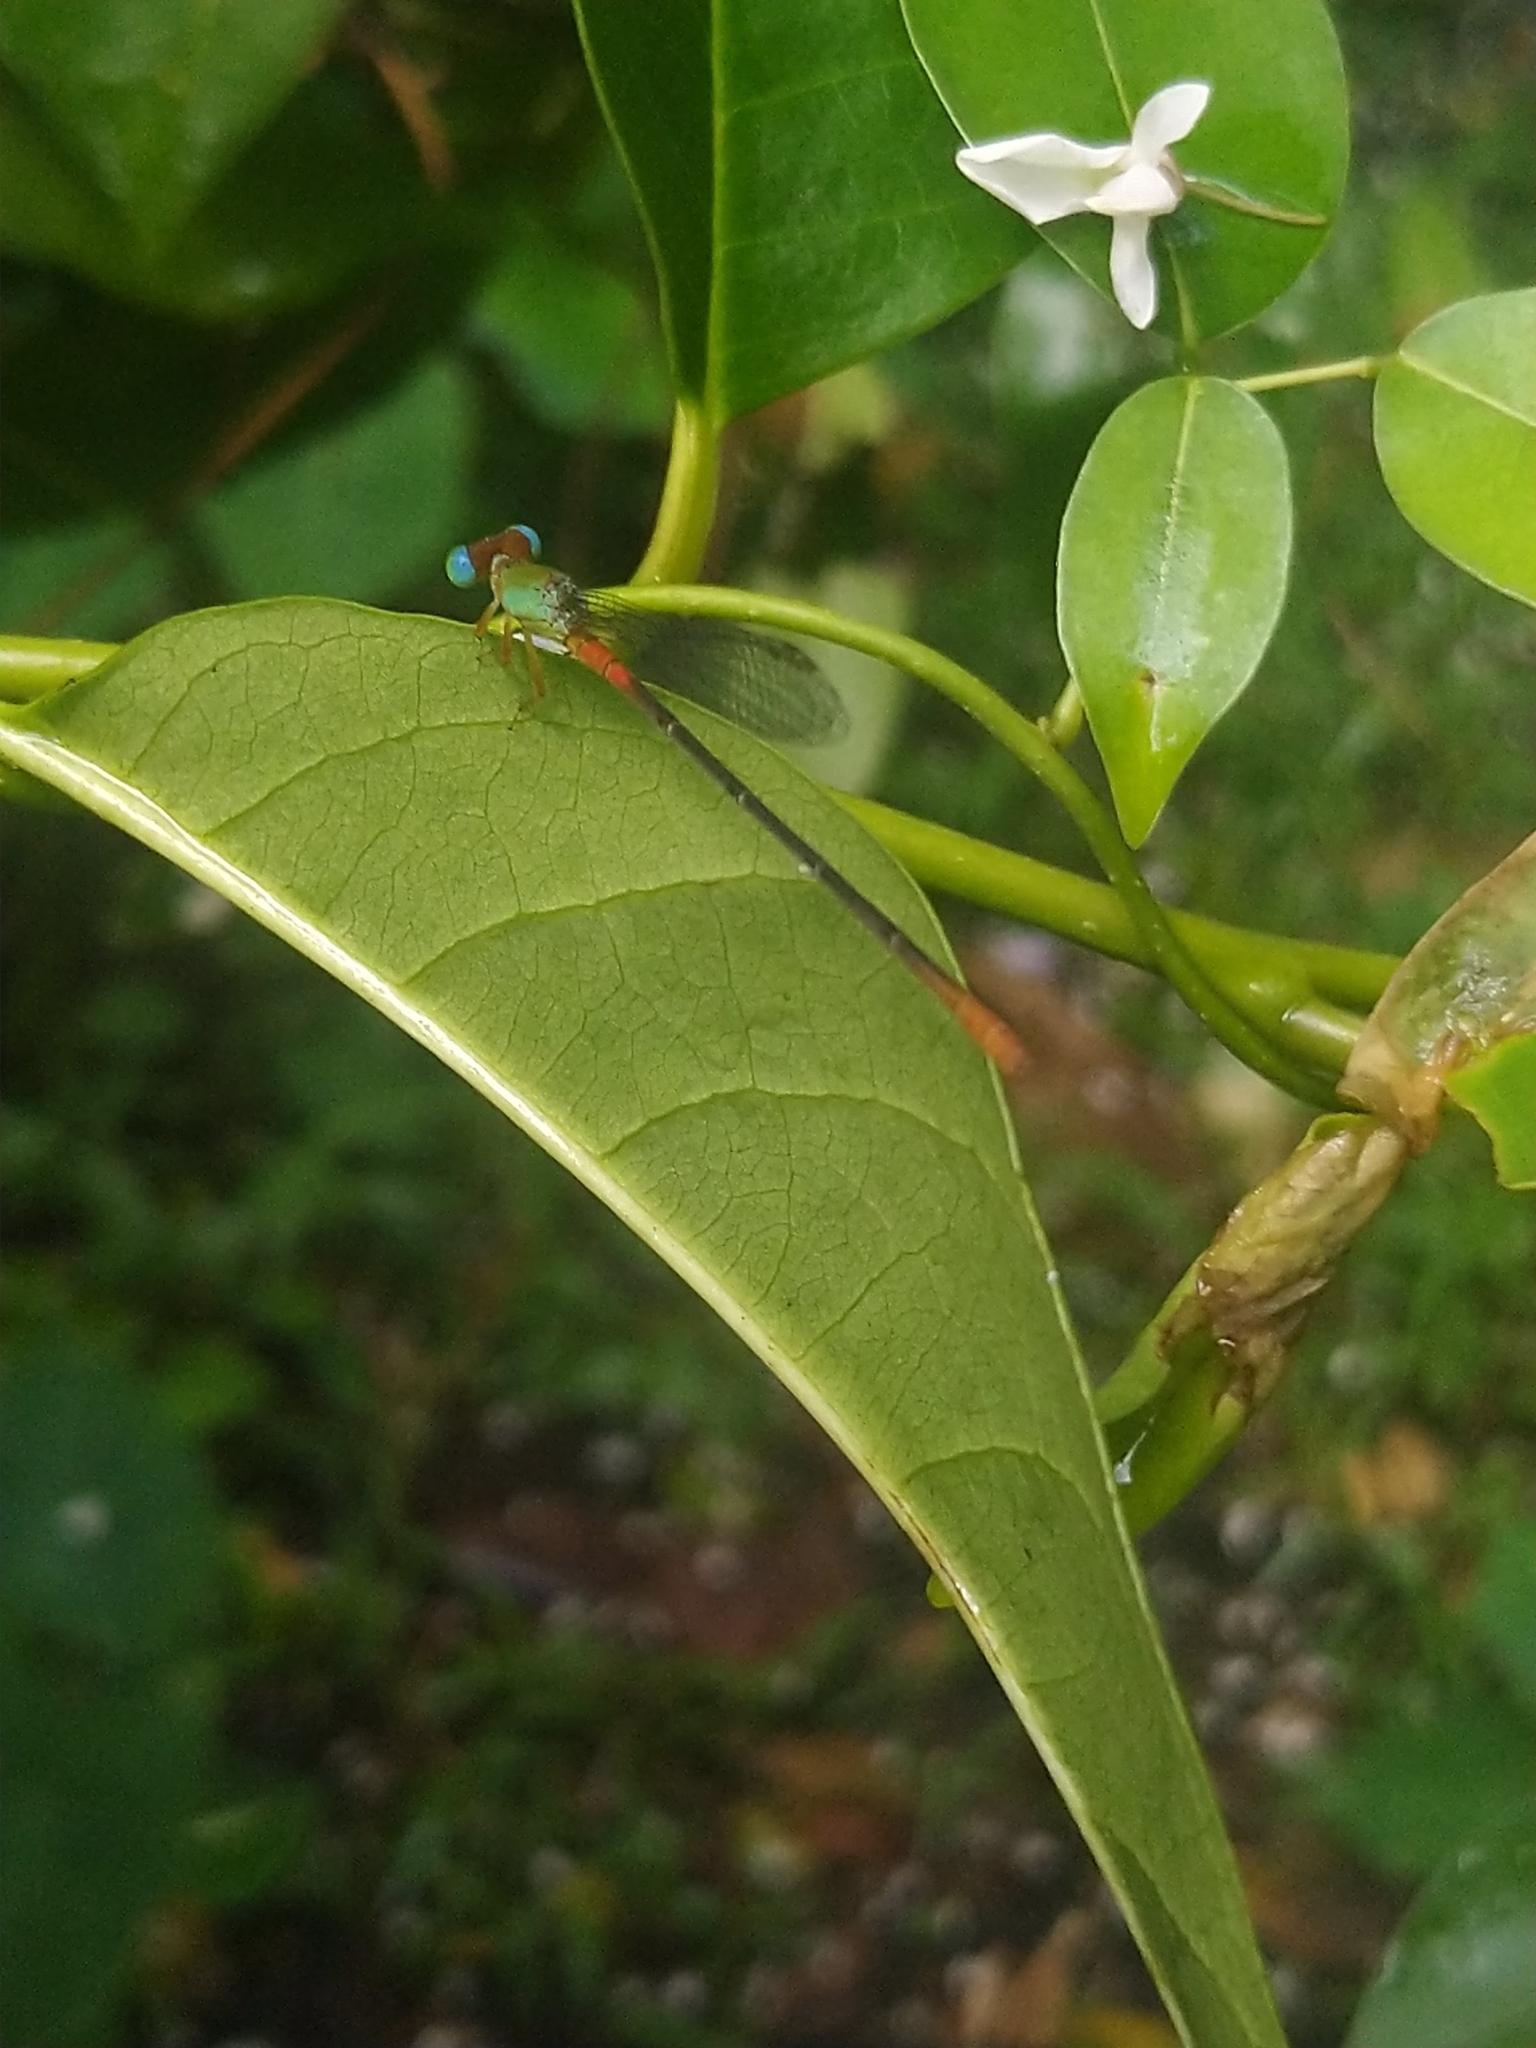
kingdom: Animalia
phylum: Arthropoda
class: Insecta
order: Odonata
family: Coenagrionidae
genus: Ceriagrion
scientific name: Ceriagrion cerinorubellum
